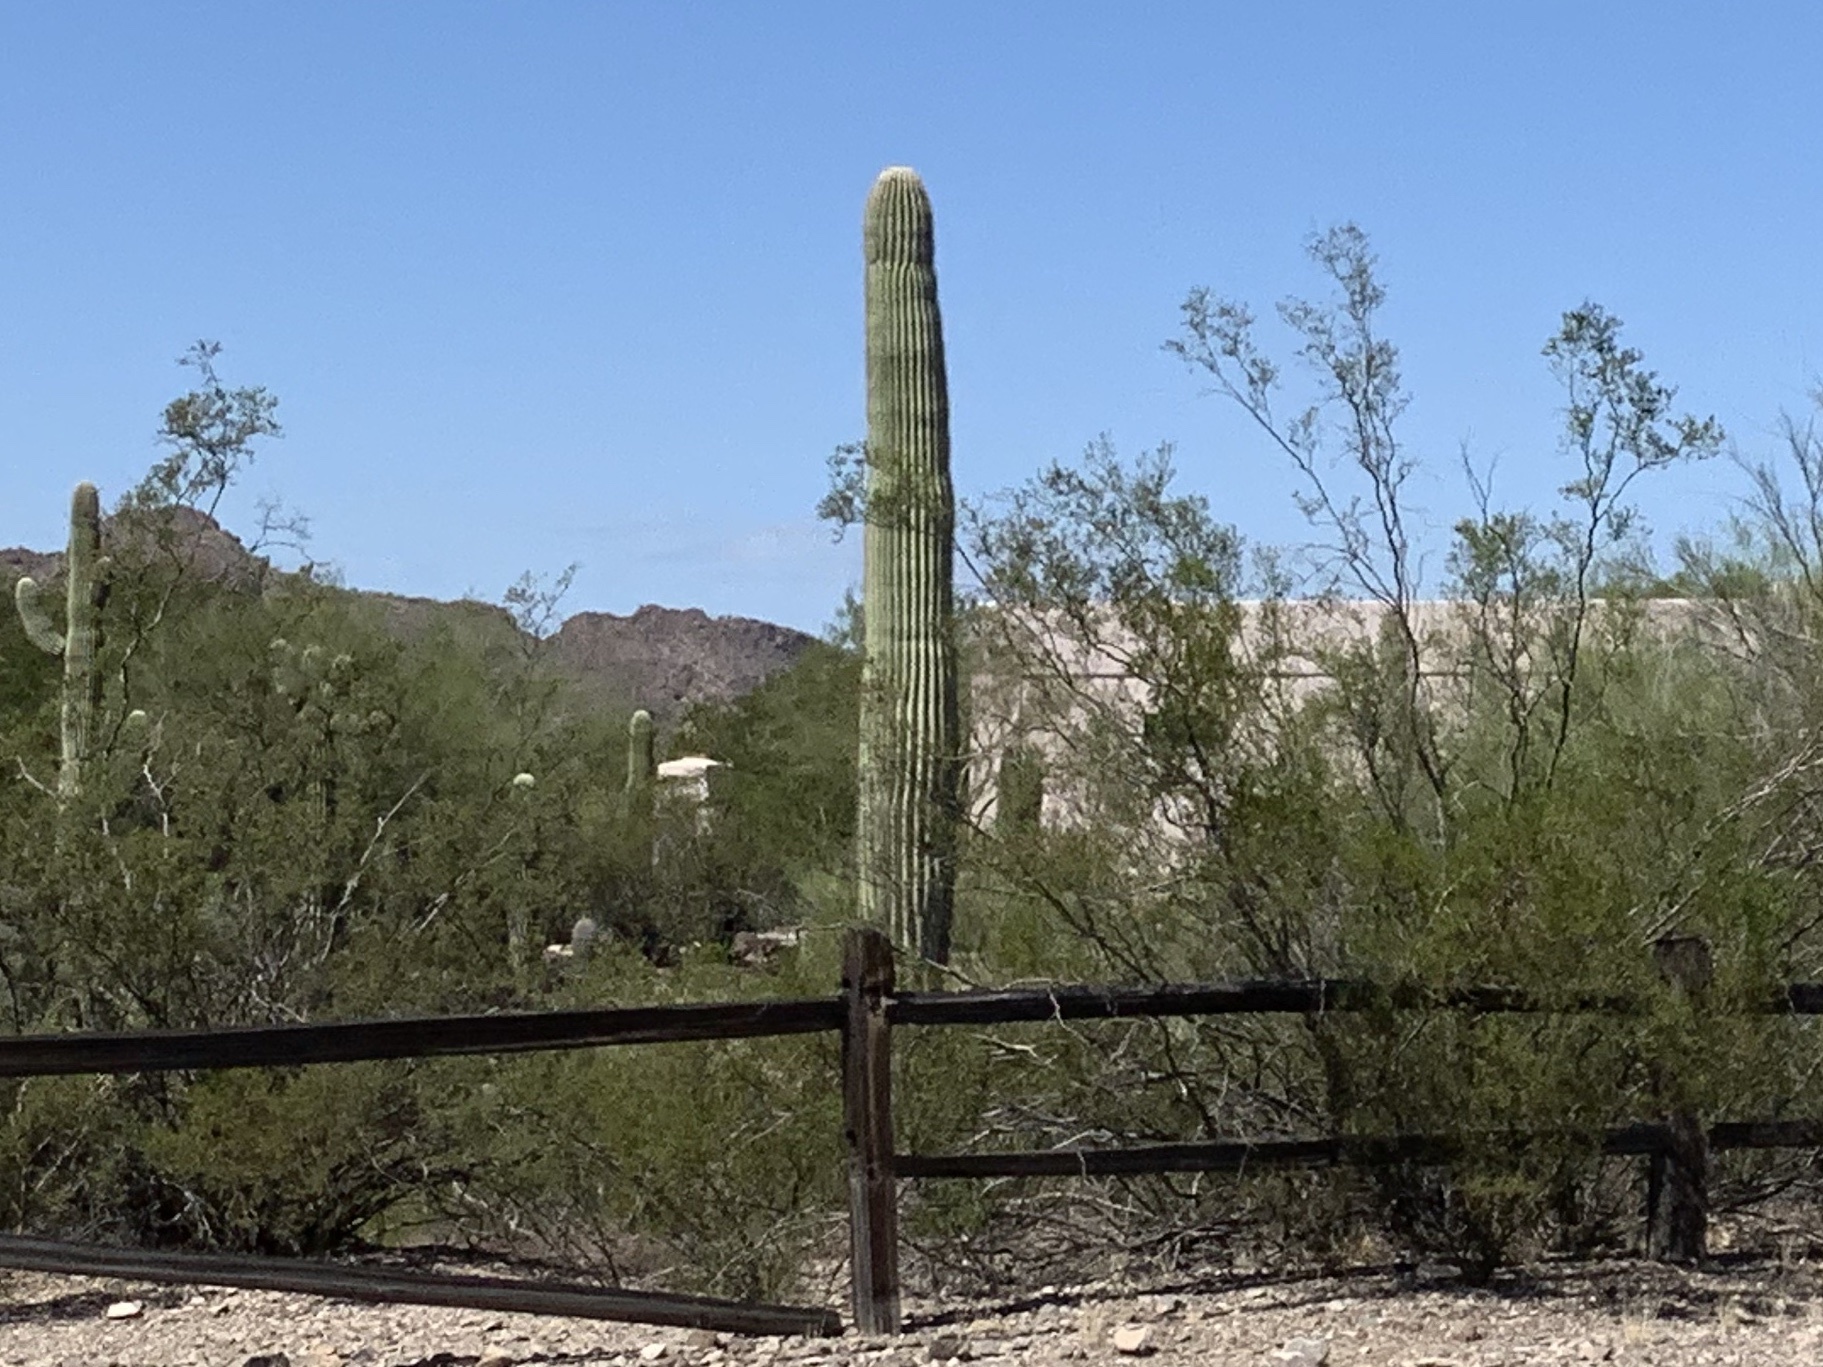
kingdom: Plantae
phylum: Tracheophyta
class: Magnoliopsida
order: Caryophyllales
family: Cactaceae
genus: Carnegiea
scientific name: Carnegiea gigantea
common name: Saguaro
